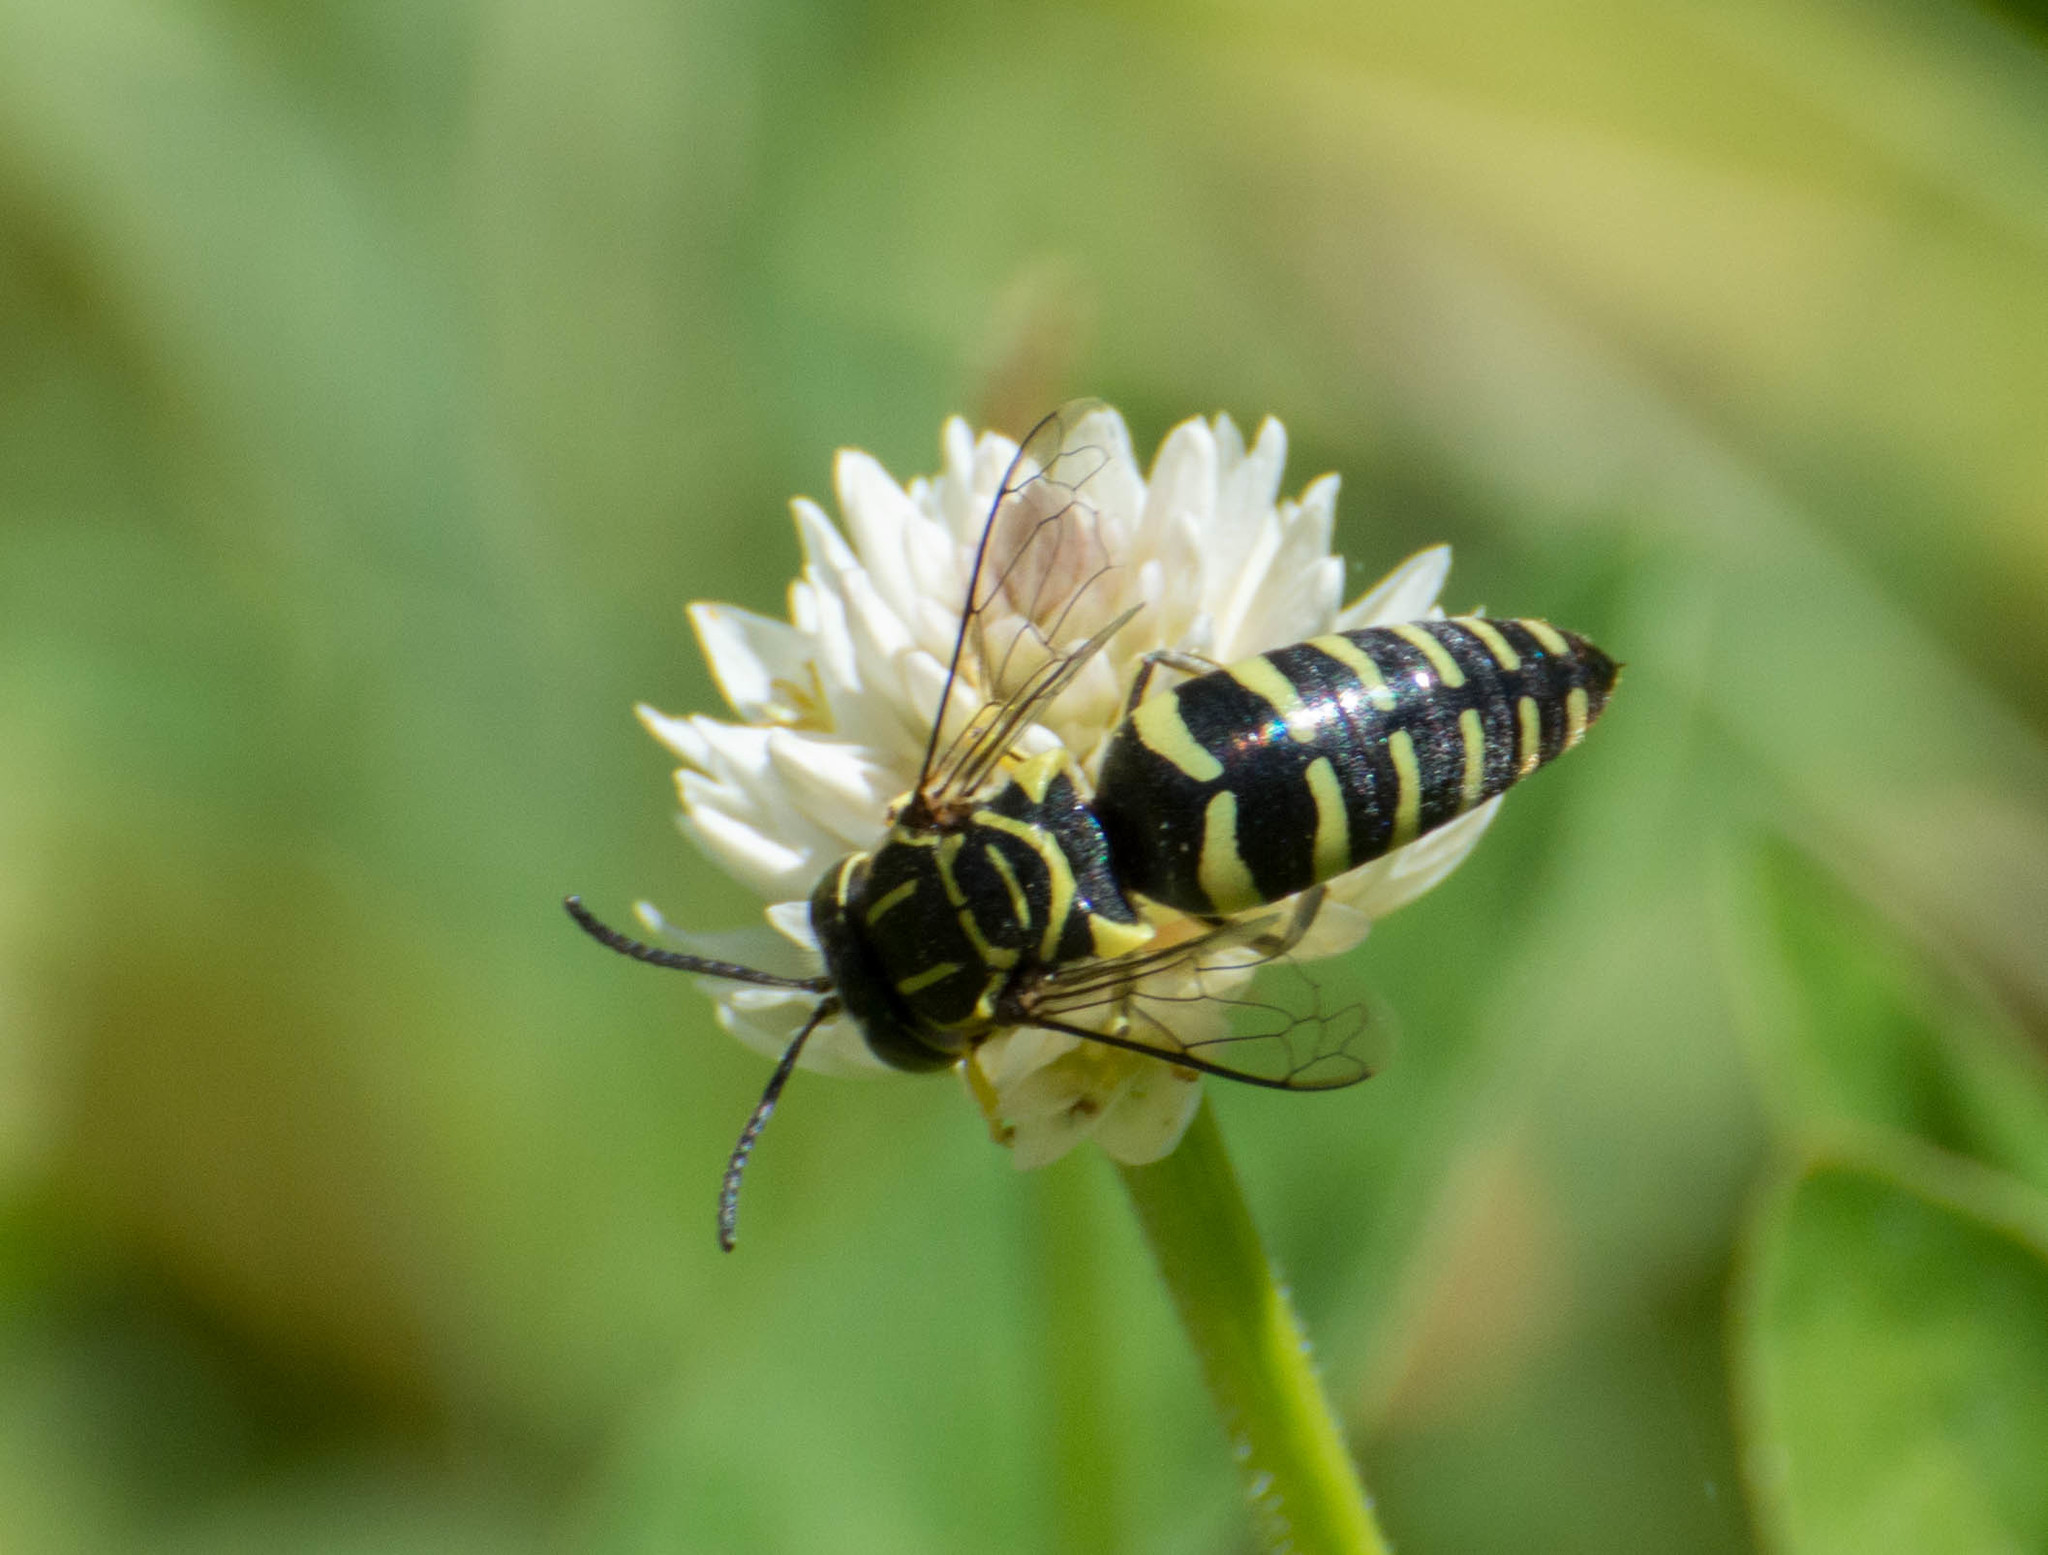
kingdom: Animalia
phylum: Arthropoda
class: Insecta
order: Hymenoptera
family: Crabronidae
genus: Bicyrtes
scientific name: Bicyrtes variegatus
